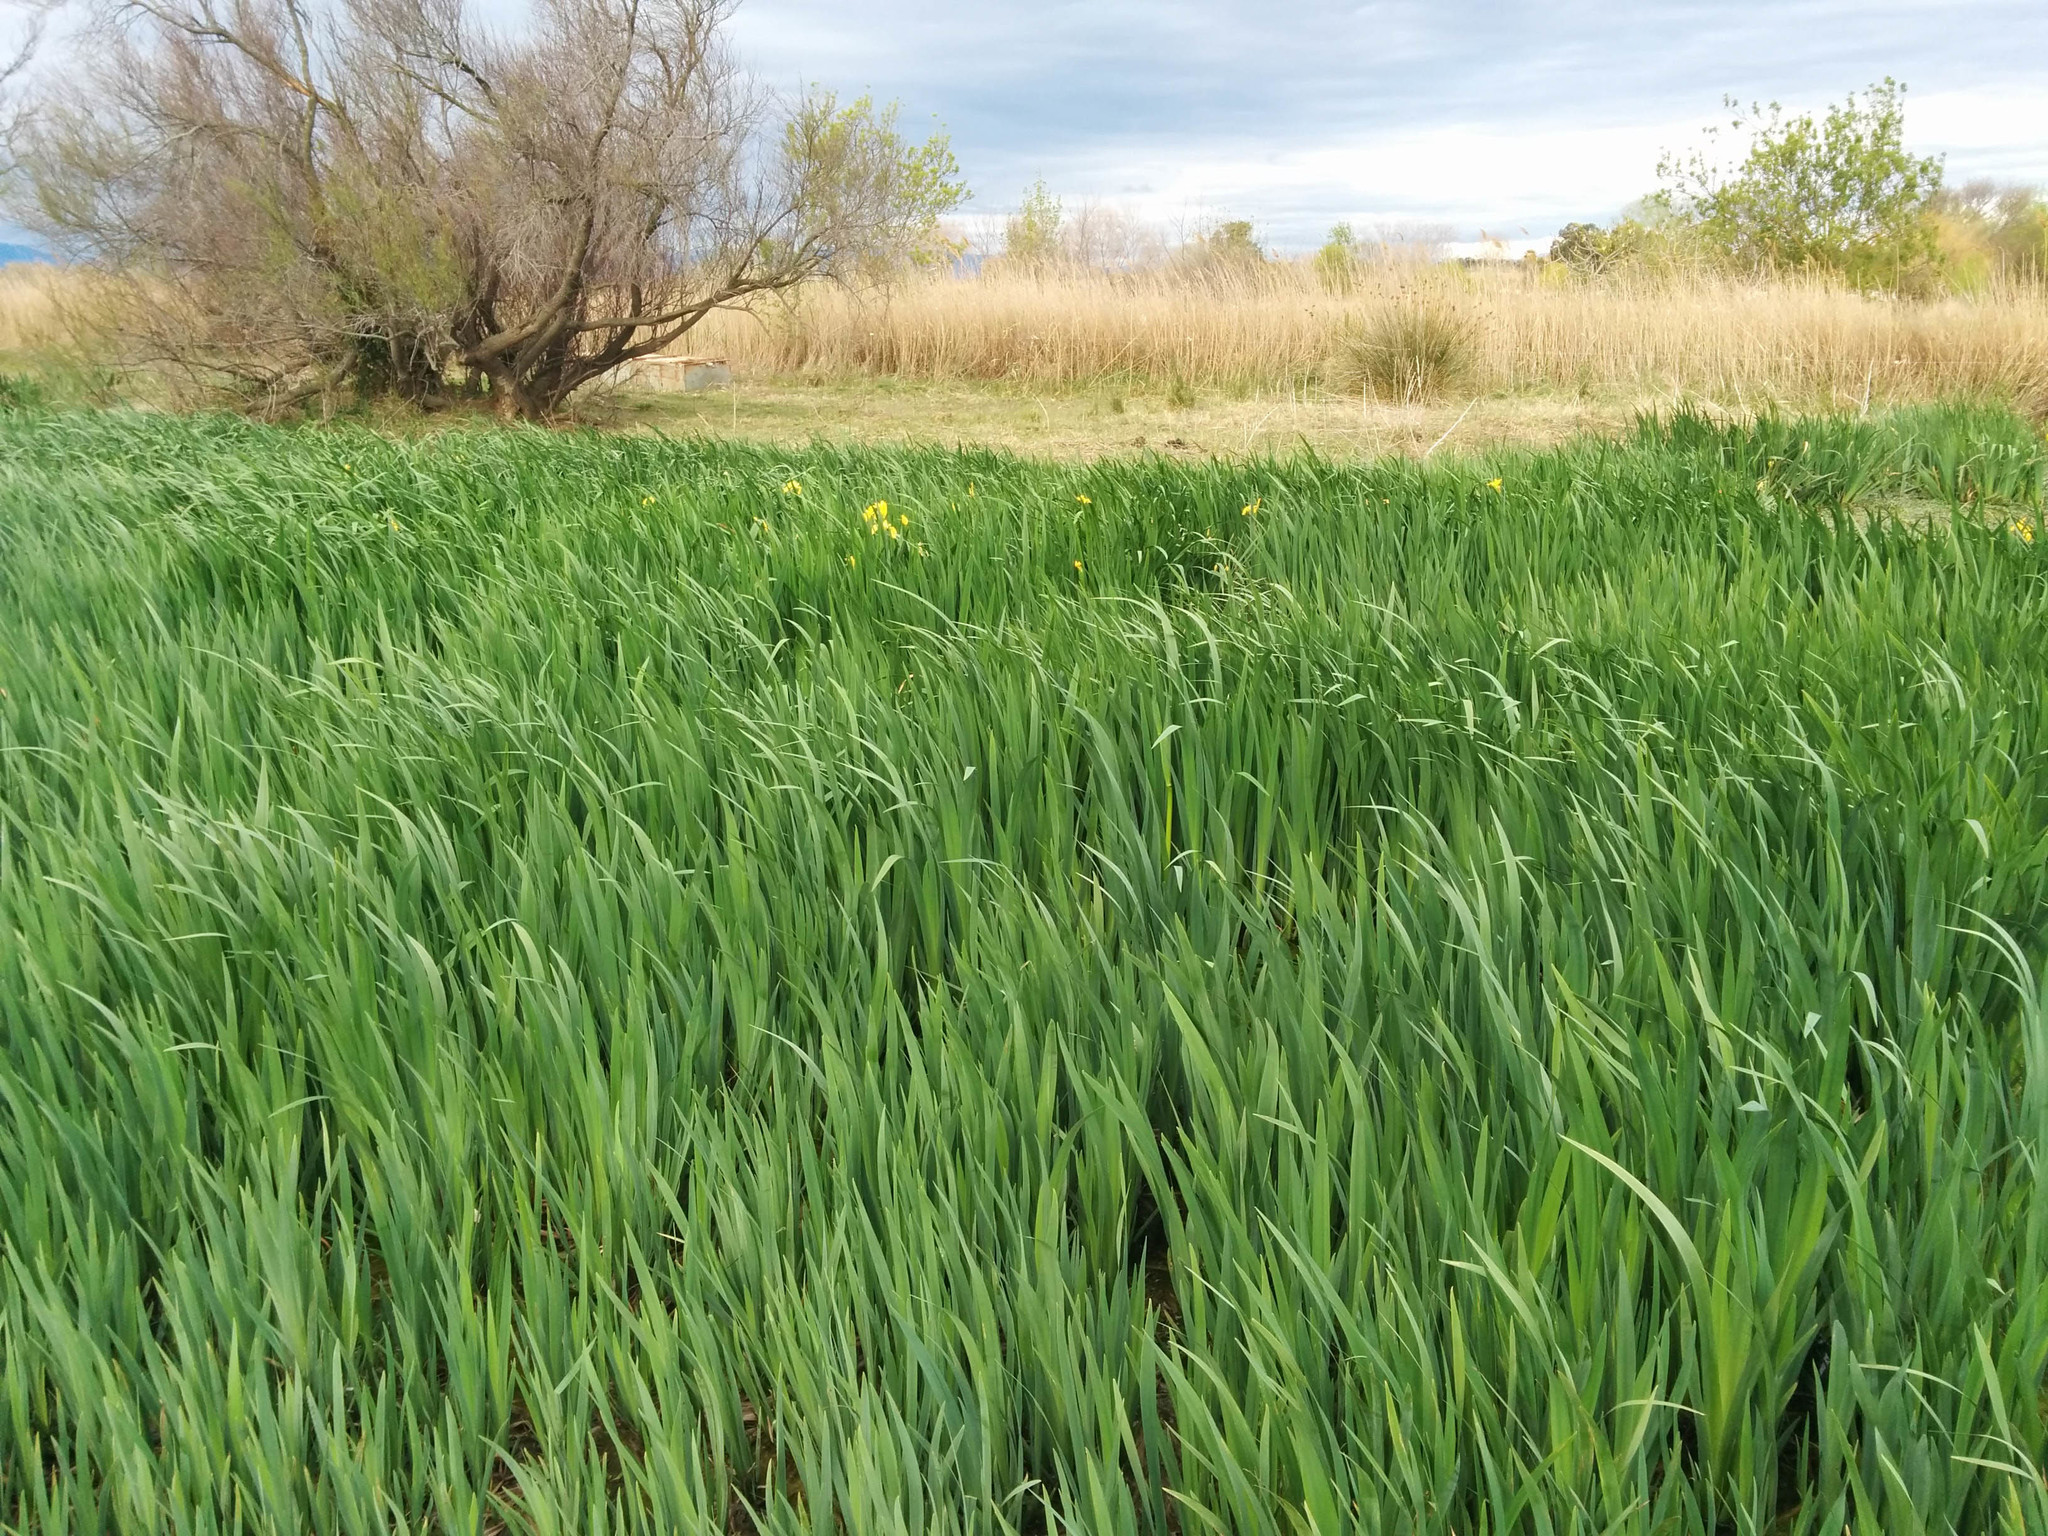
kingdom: Plantae
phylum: Tracheophyta
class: Liliopsida
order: Asparagales
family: Iridaceae
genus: Iris
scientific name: Iris pseudacorus
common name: Yellow flag
